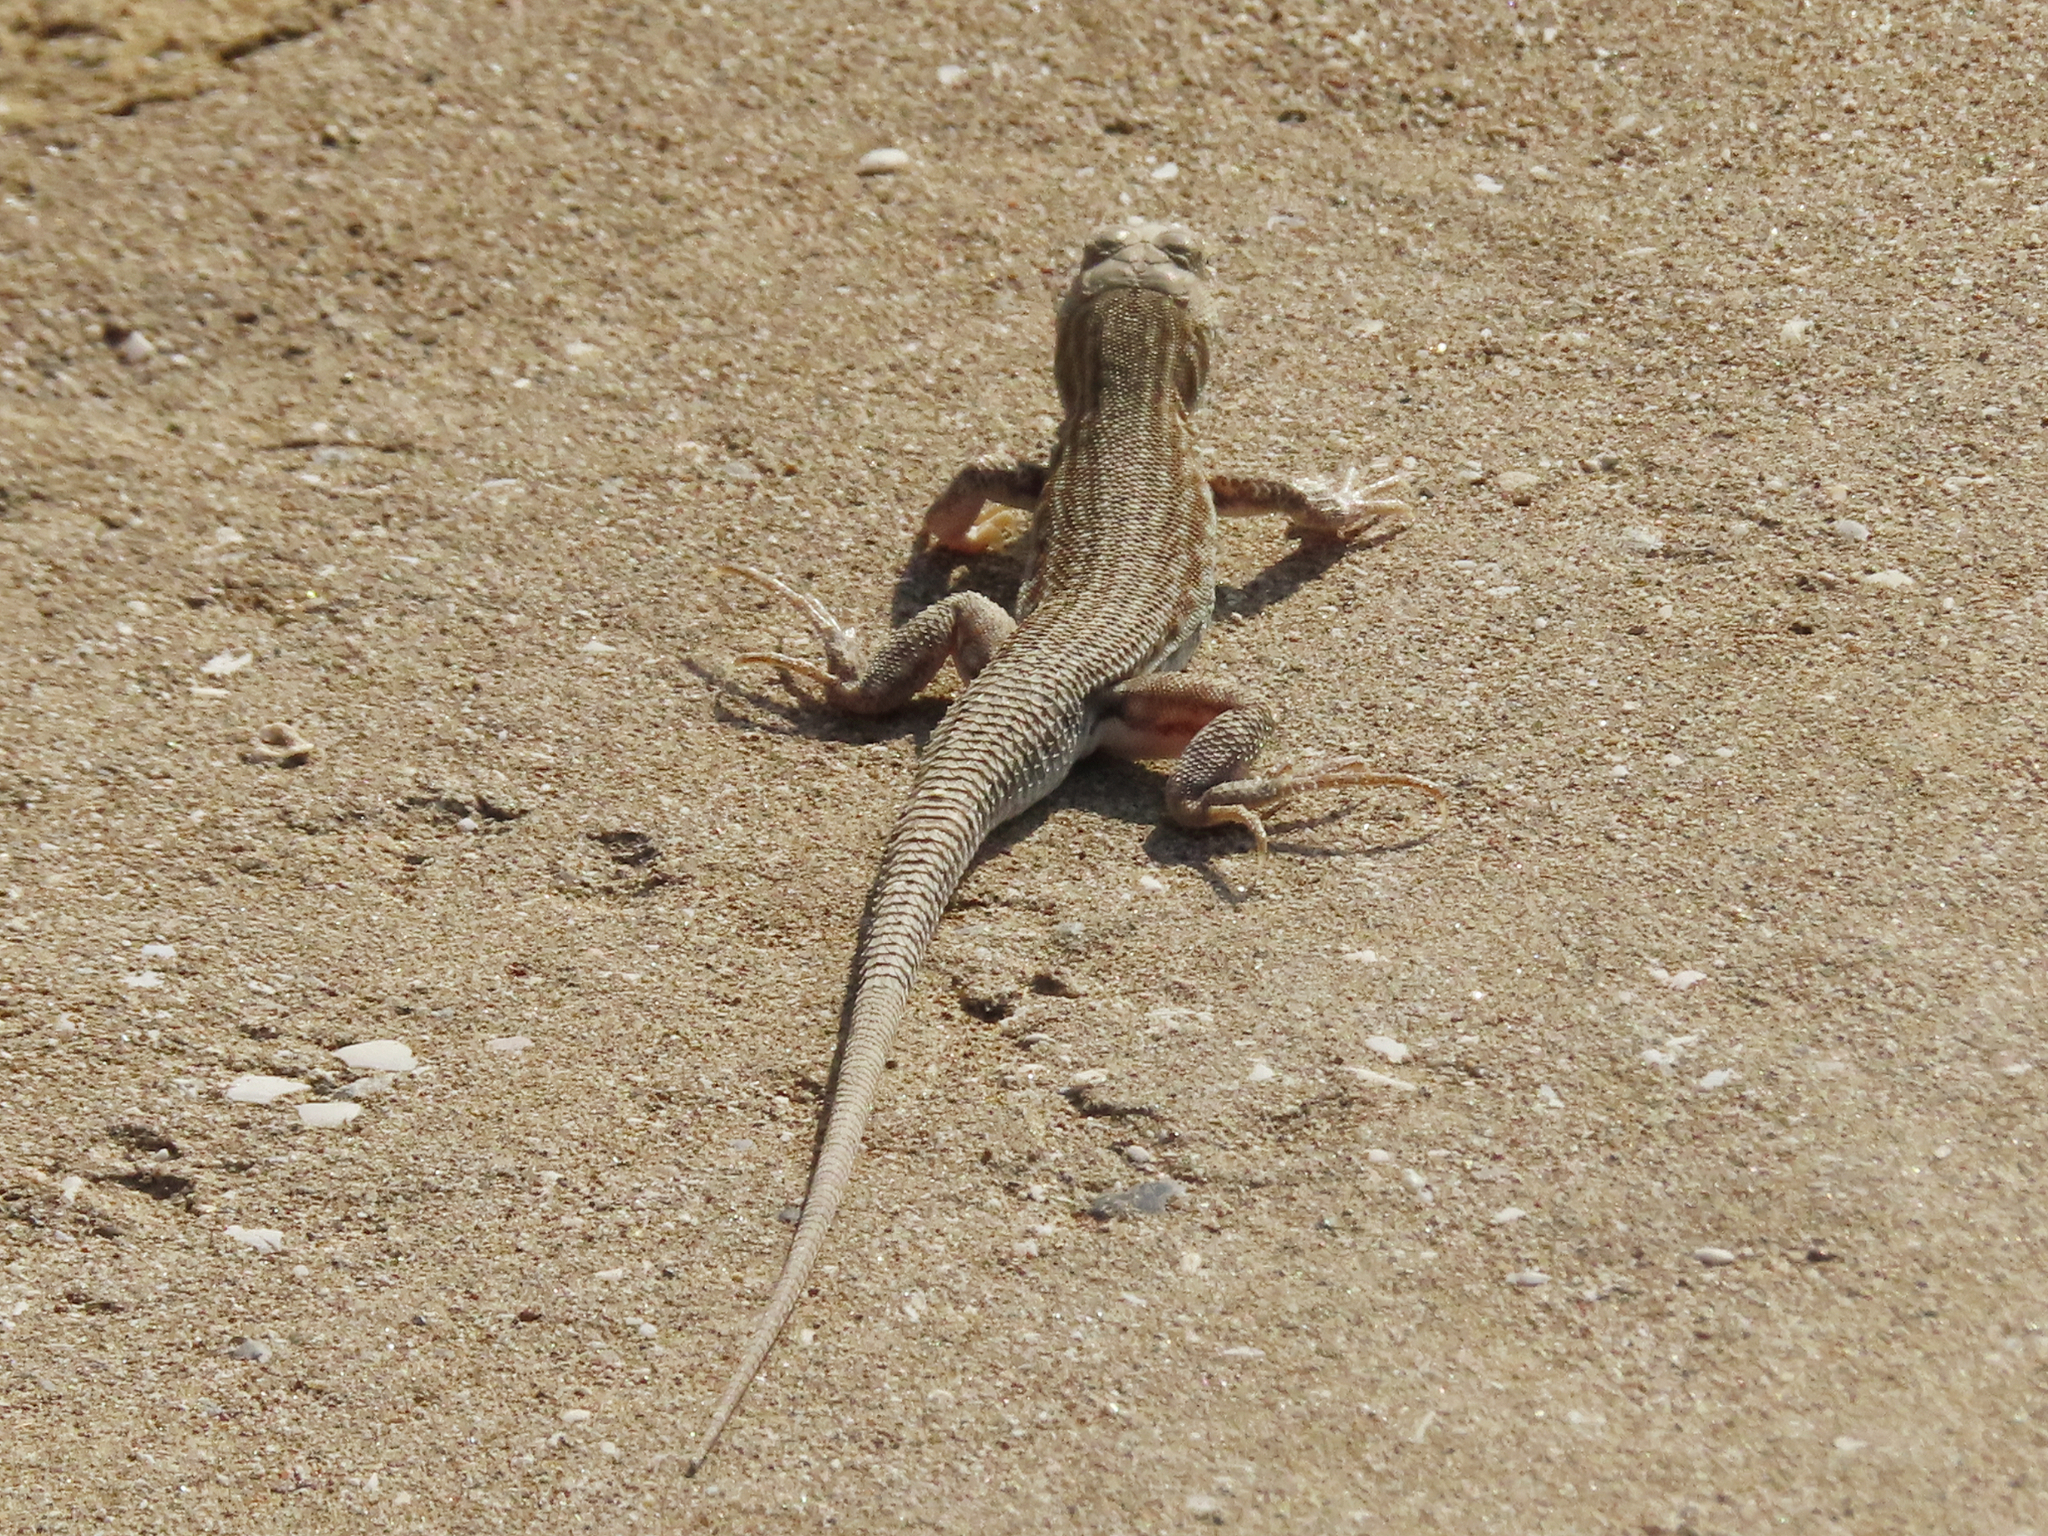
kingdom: Animalia
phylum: Chordata
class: Squamata
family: Lacertidae
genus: Acanthodactylus
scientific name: Acanthodactylus blanfordii
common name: Blanford's fringe-fingered lizard
